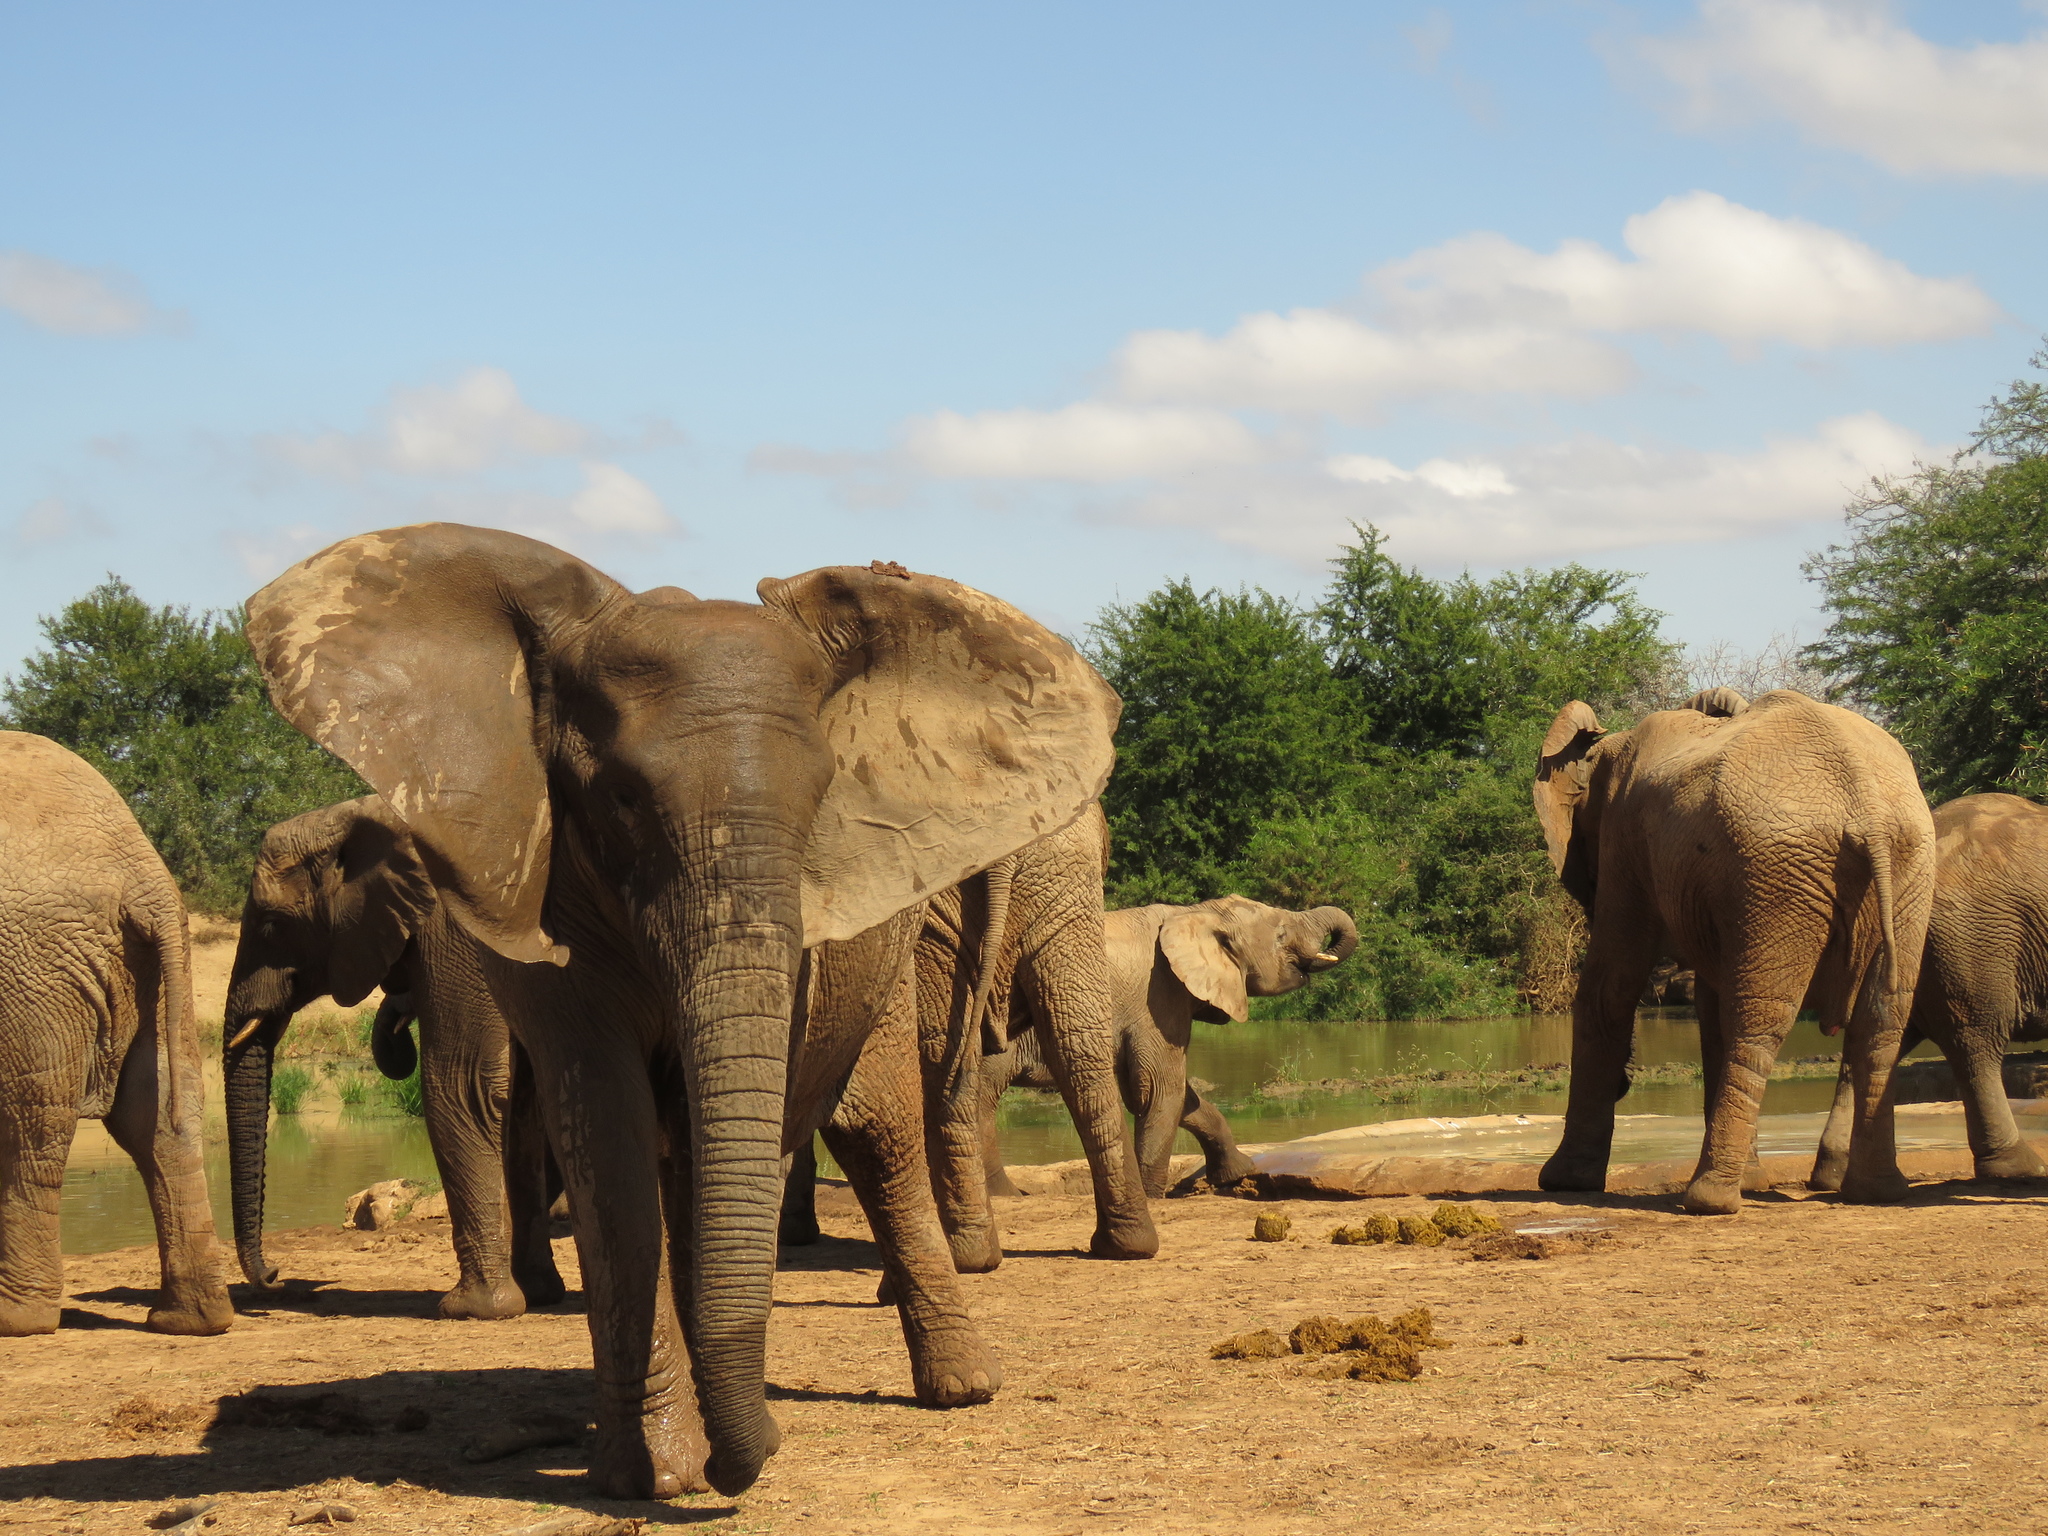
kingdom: Animalia
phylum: Chordata
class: Mammalia
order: Proboscidea
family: Elephantidae
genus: Loxodonta
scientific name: Loxodonta africana
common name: African elephant
